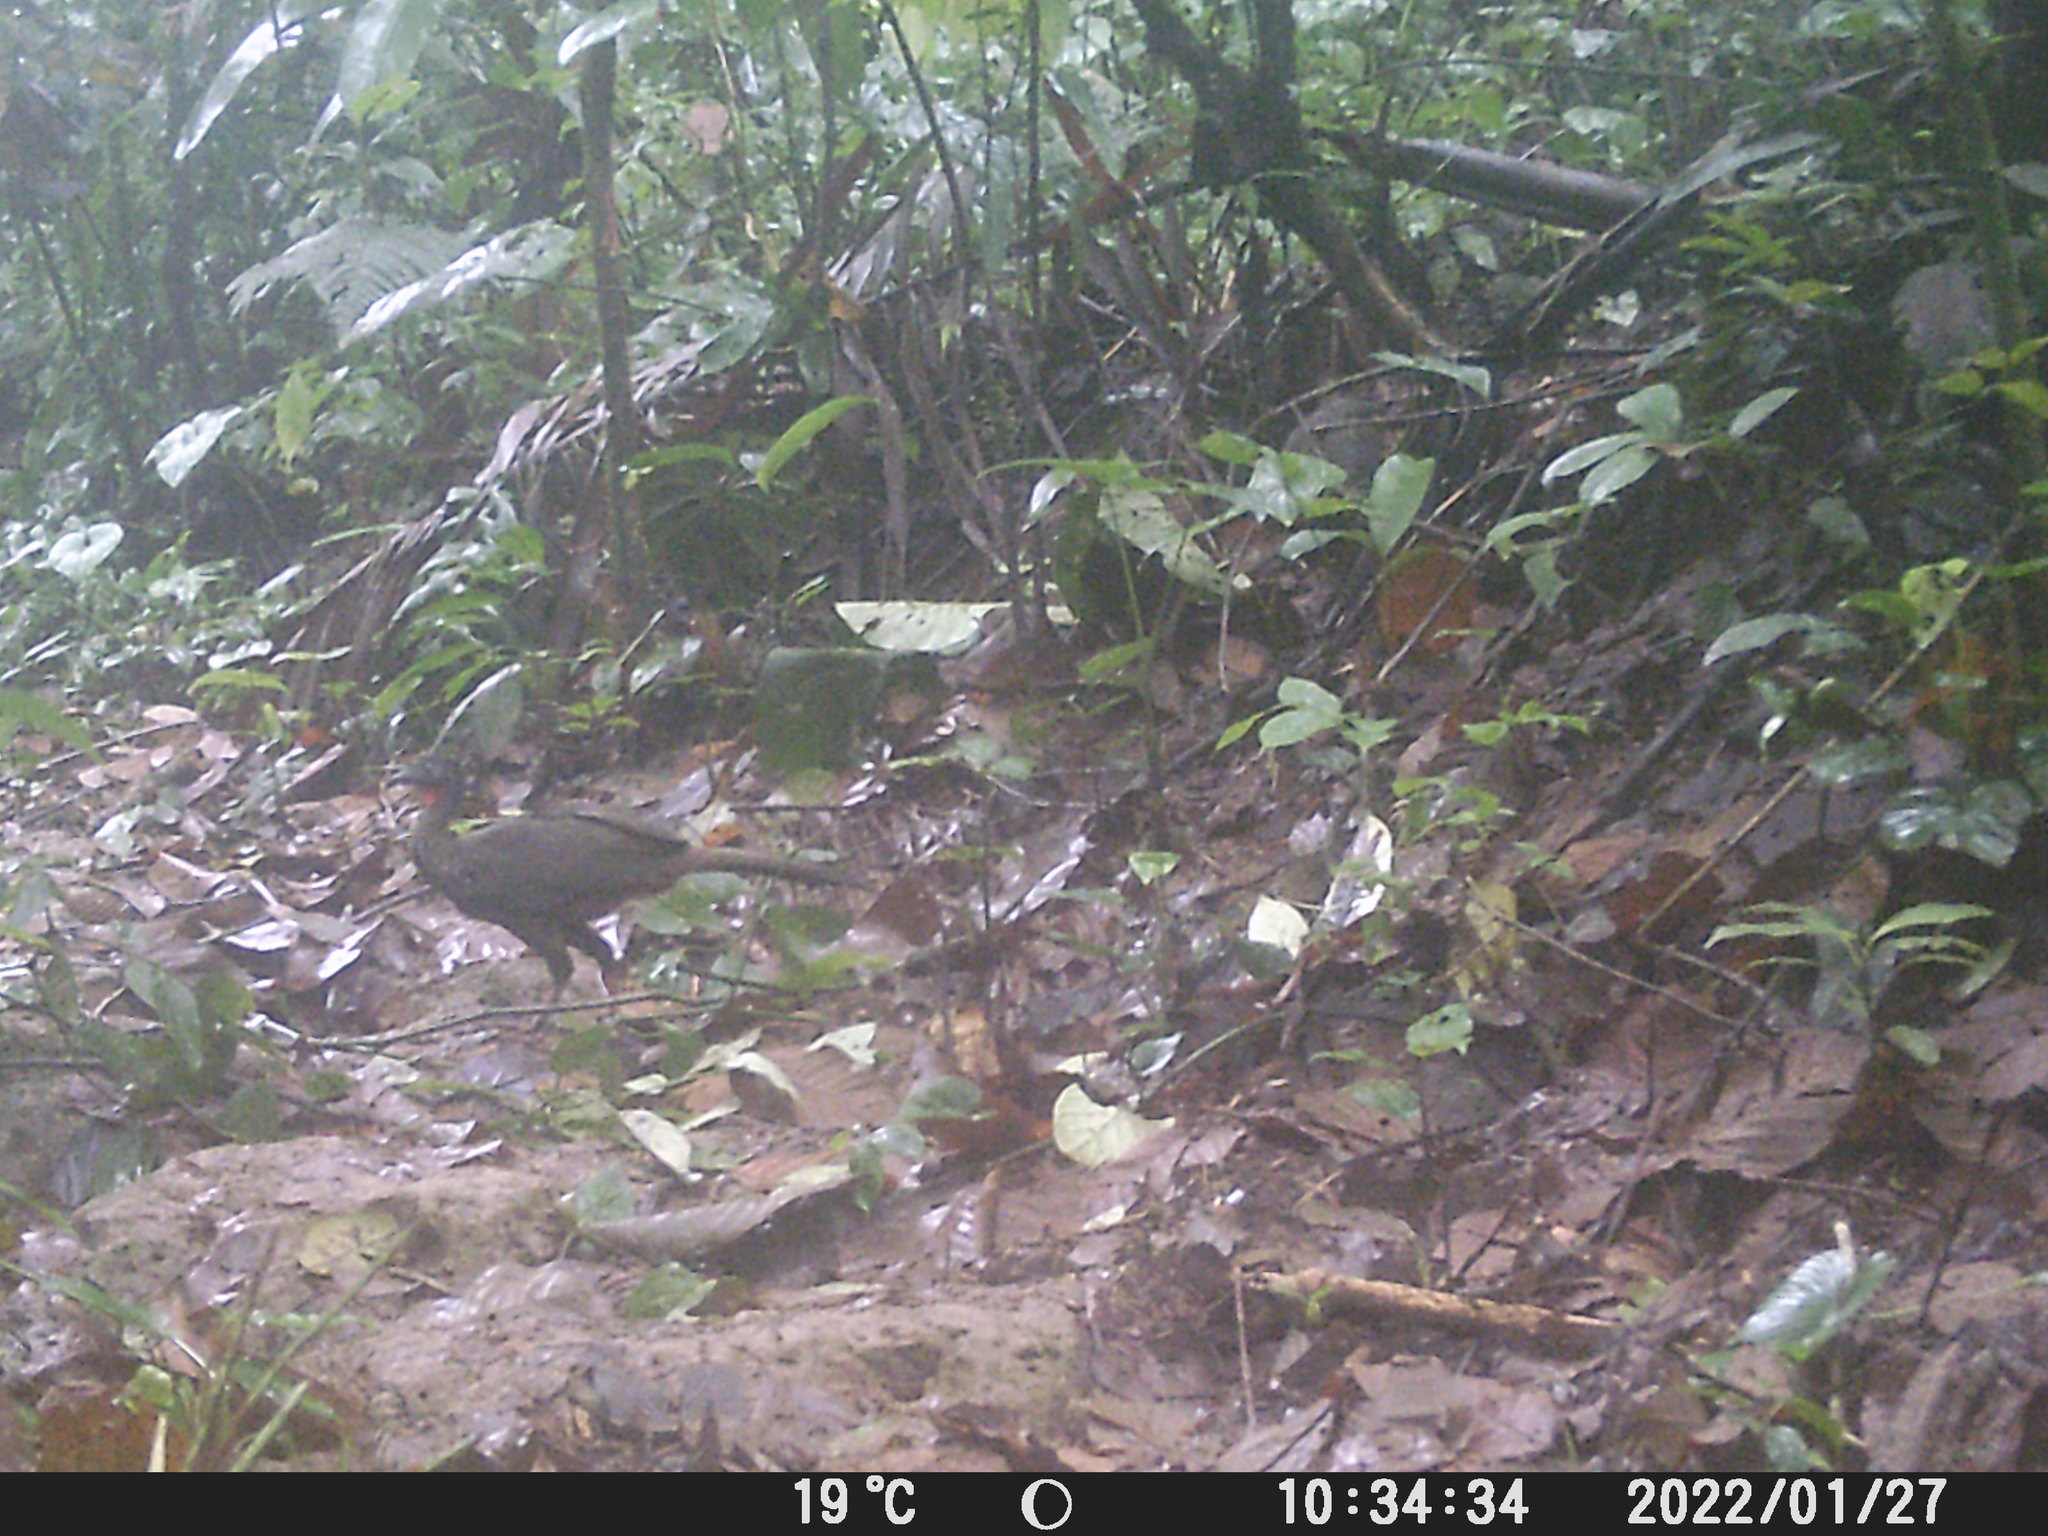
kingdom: Animalia
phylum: Chordata
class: Aves
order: Galliformes
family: Cracidae
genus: Penelope
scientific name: Penelope purpurascens
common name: Crested guan
